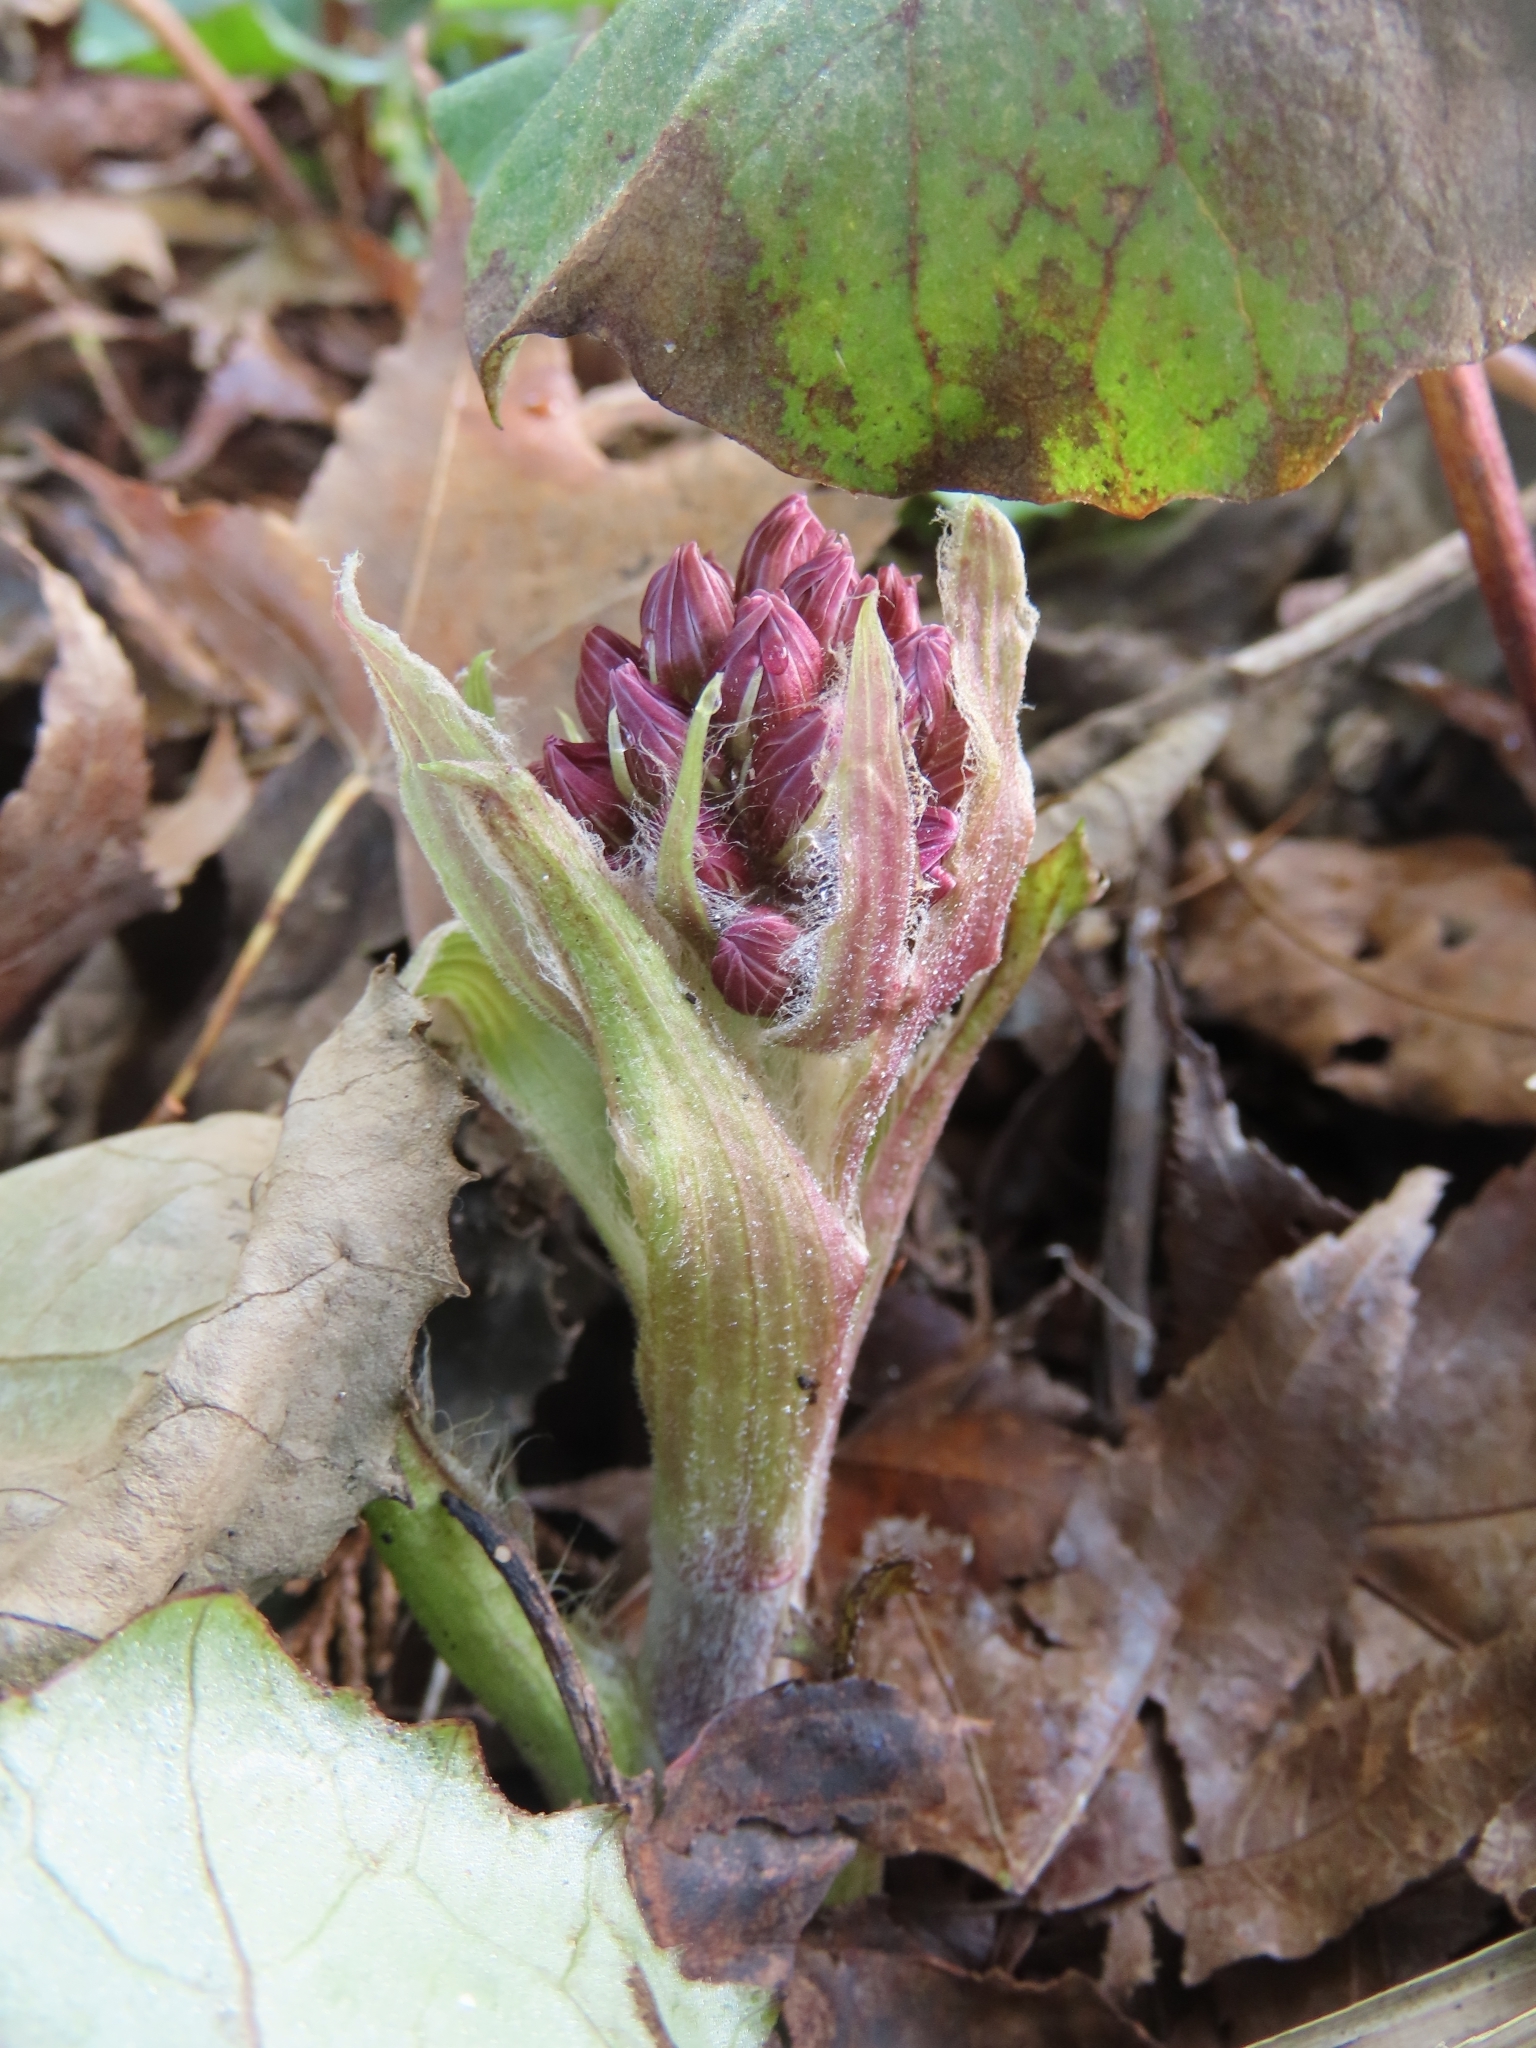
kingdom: Plantae
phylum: Tracheophyta
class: Magnoliopsida
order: Asterales
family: Asteraceae
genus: Petasites
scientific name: Petasites formosanus
